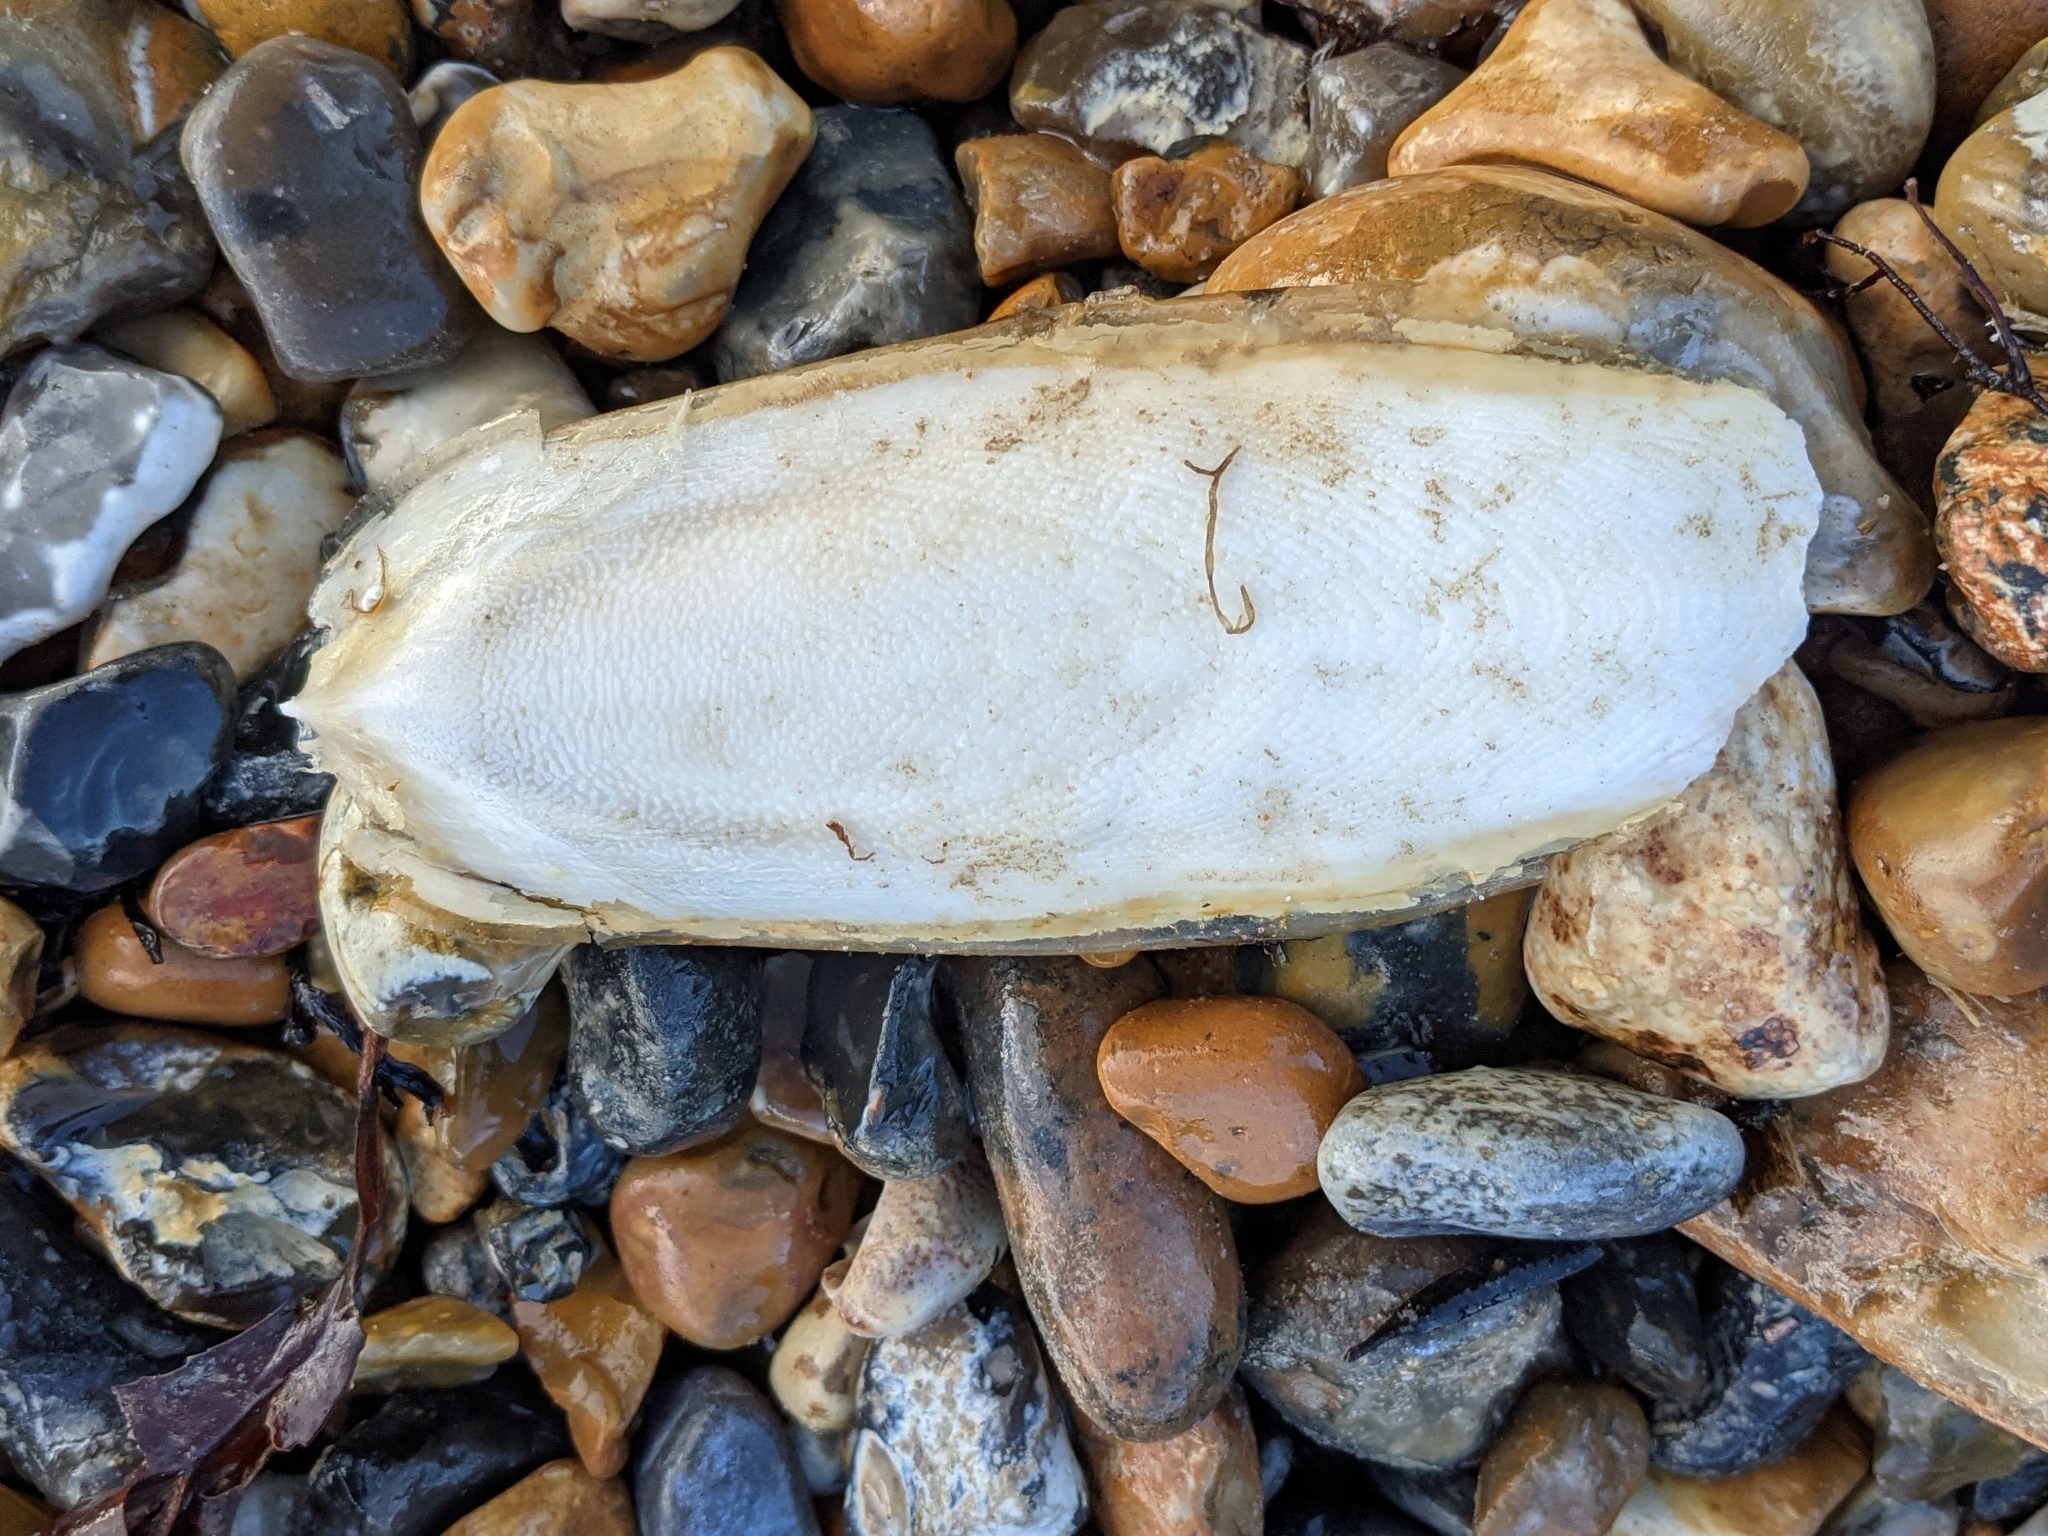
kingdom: Animalia
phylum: Mollusca
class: Cephalopoda
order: Sepiida
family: Sepiidae
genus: Sepia
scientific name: Sepia officinalis
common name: Common cuttlefish
